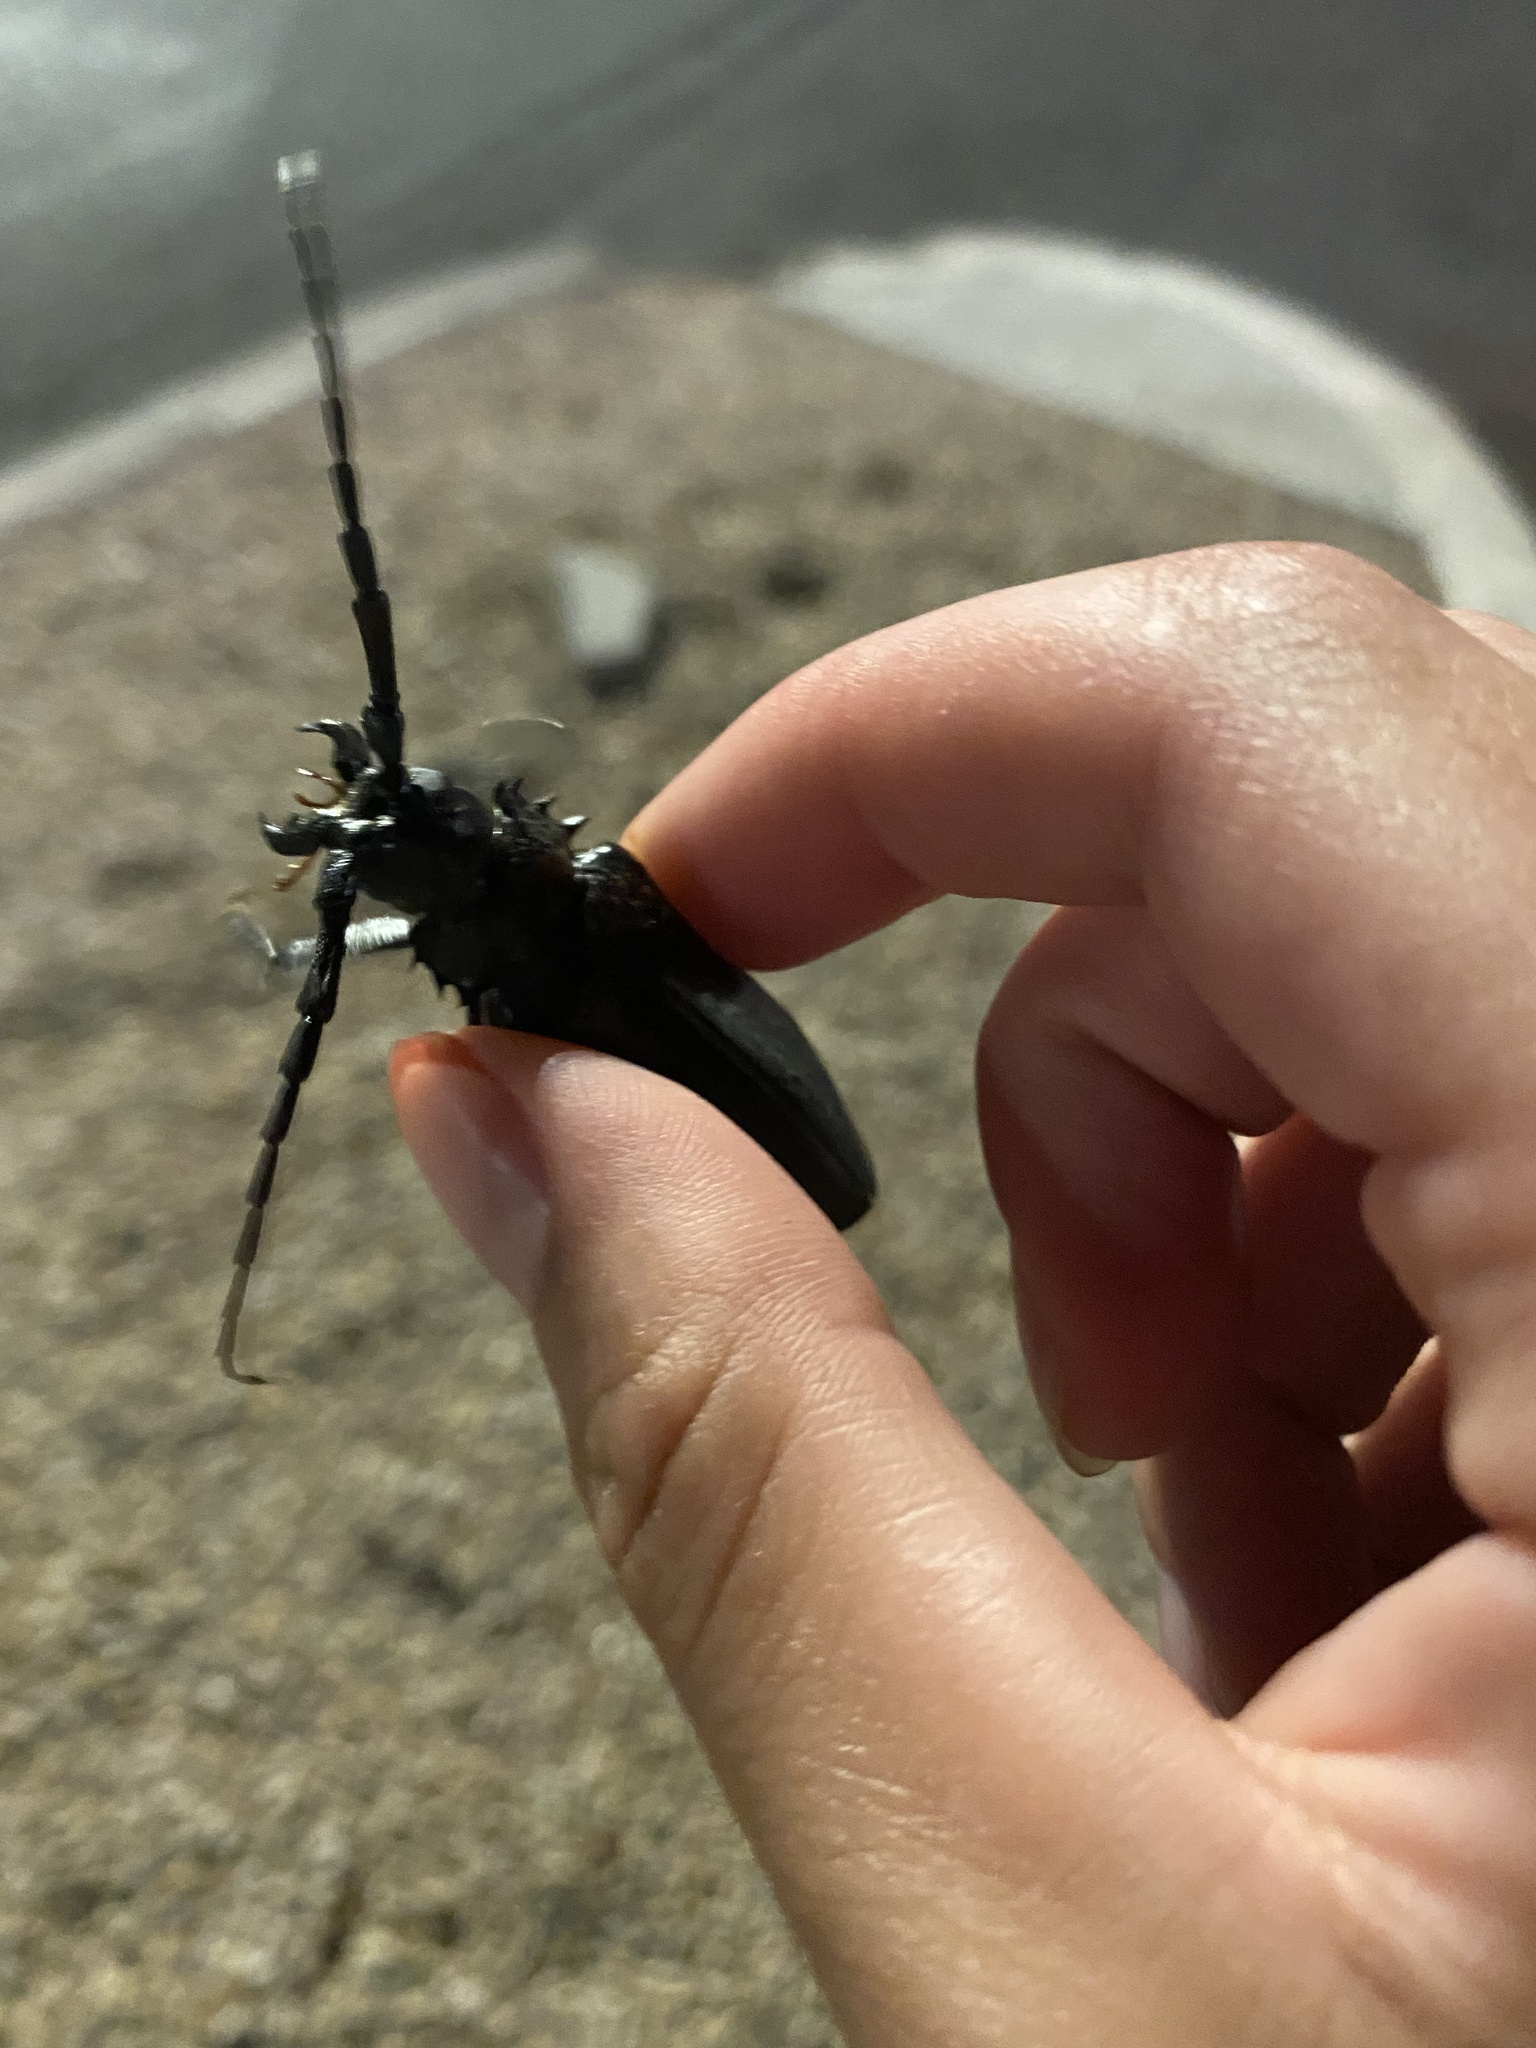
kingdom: Animalia
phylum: Arthropoda
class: Insecta
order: Coleoptera
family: Cerambycidae
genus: Derobrachus
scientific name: Derobrachus hovorei
